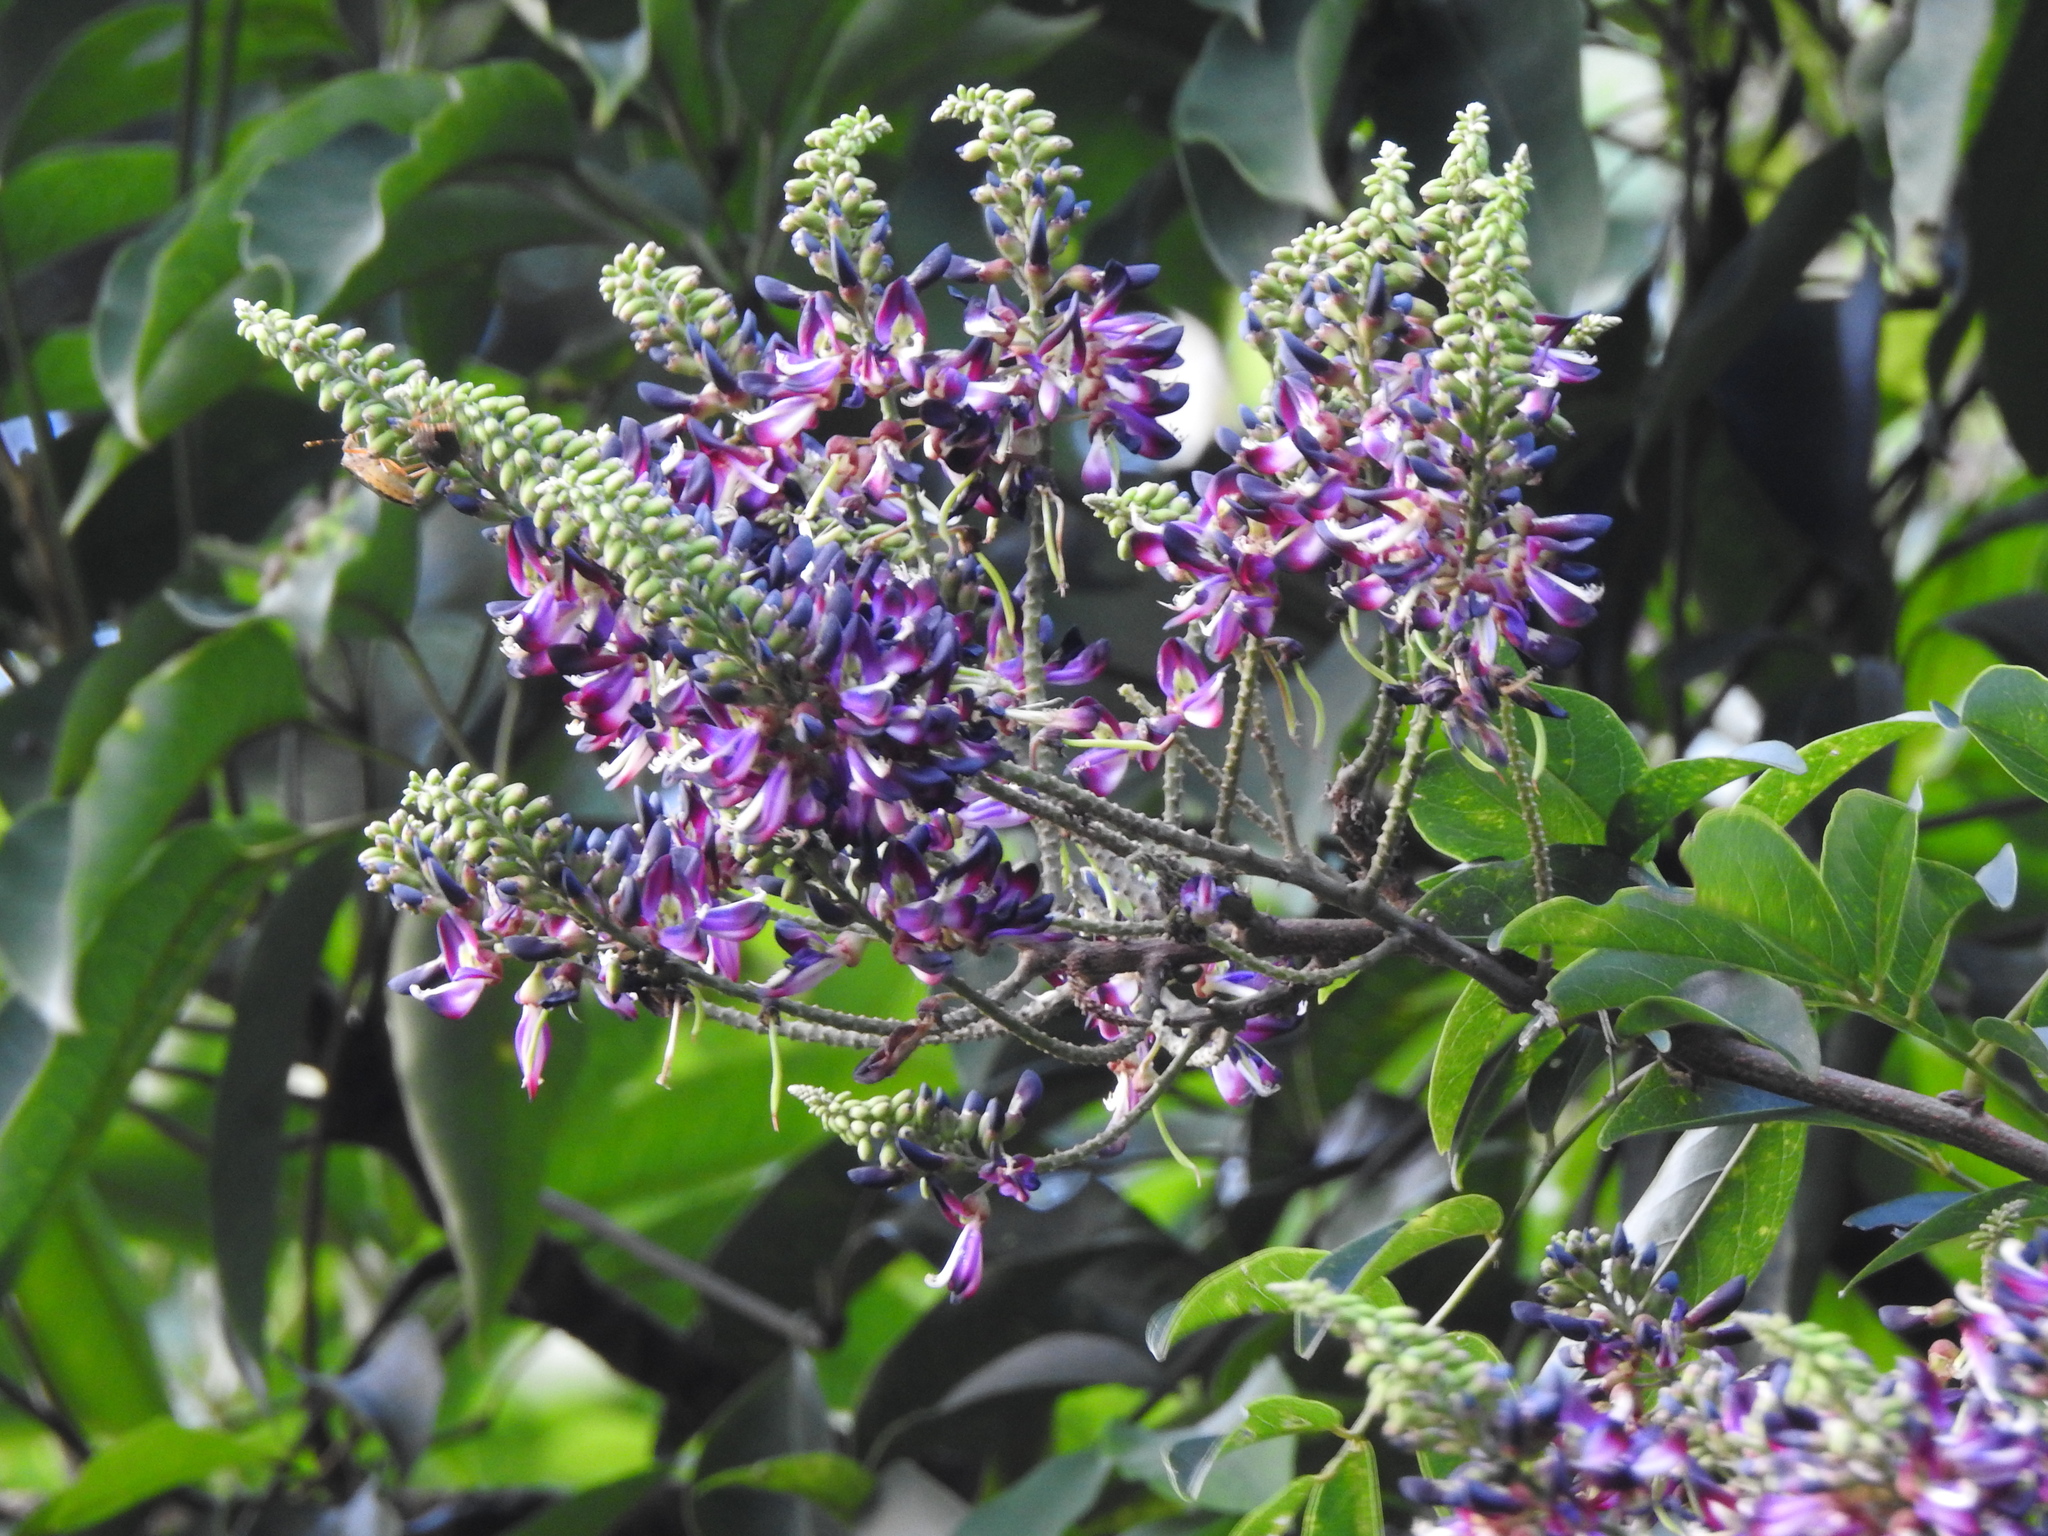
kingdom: Plantae
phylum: Tracheophyta
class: Magnoliopsida
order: Fabales
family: Fabaceae
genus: Wisteriopsis
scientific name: Wisteriopsis reticulata
